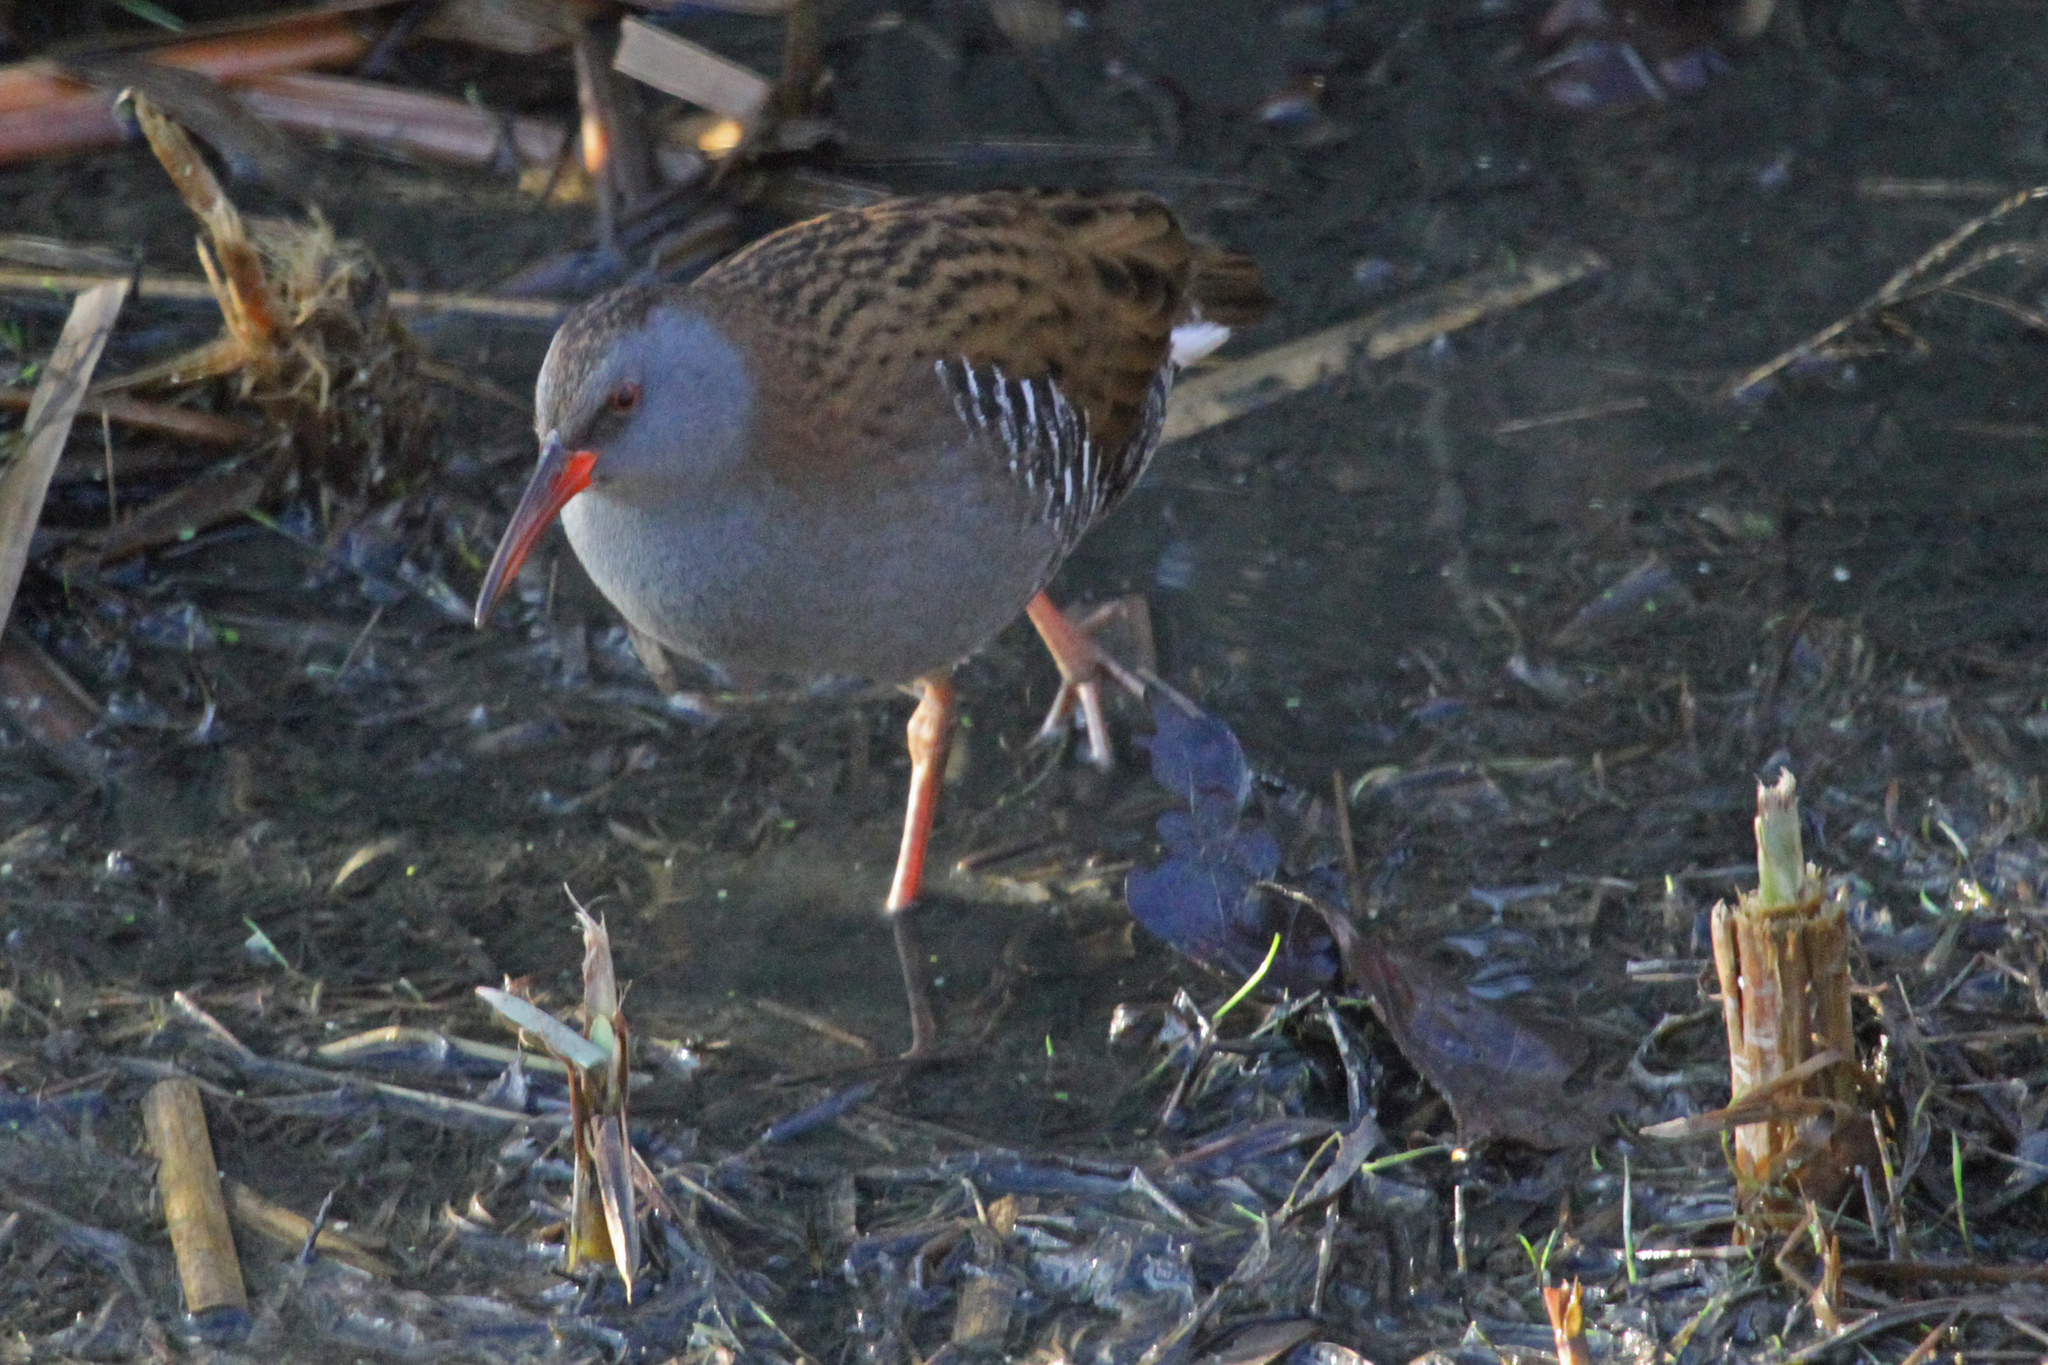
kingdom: Animalia
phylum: Chordata
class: Aves
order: Gruiformes
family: Rallidae
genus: Rallus
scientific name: Rallus aquaticus
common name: Water rail
